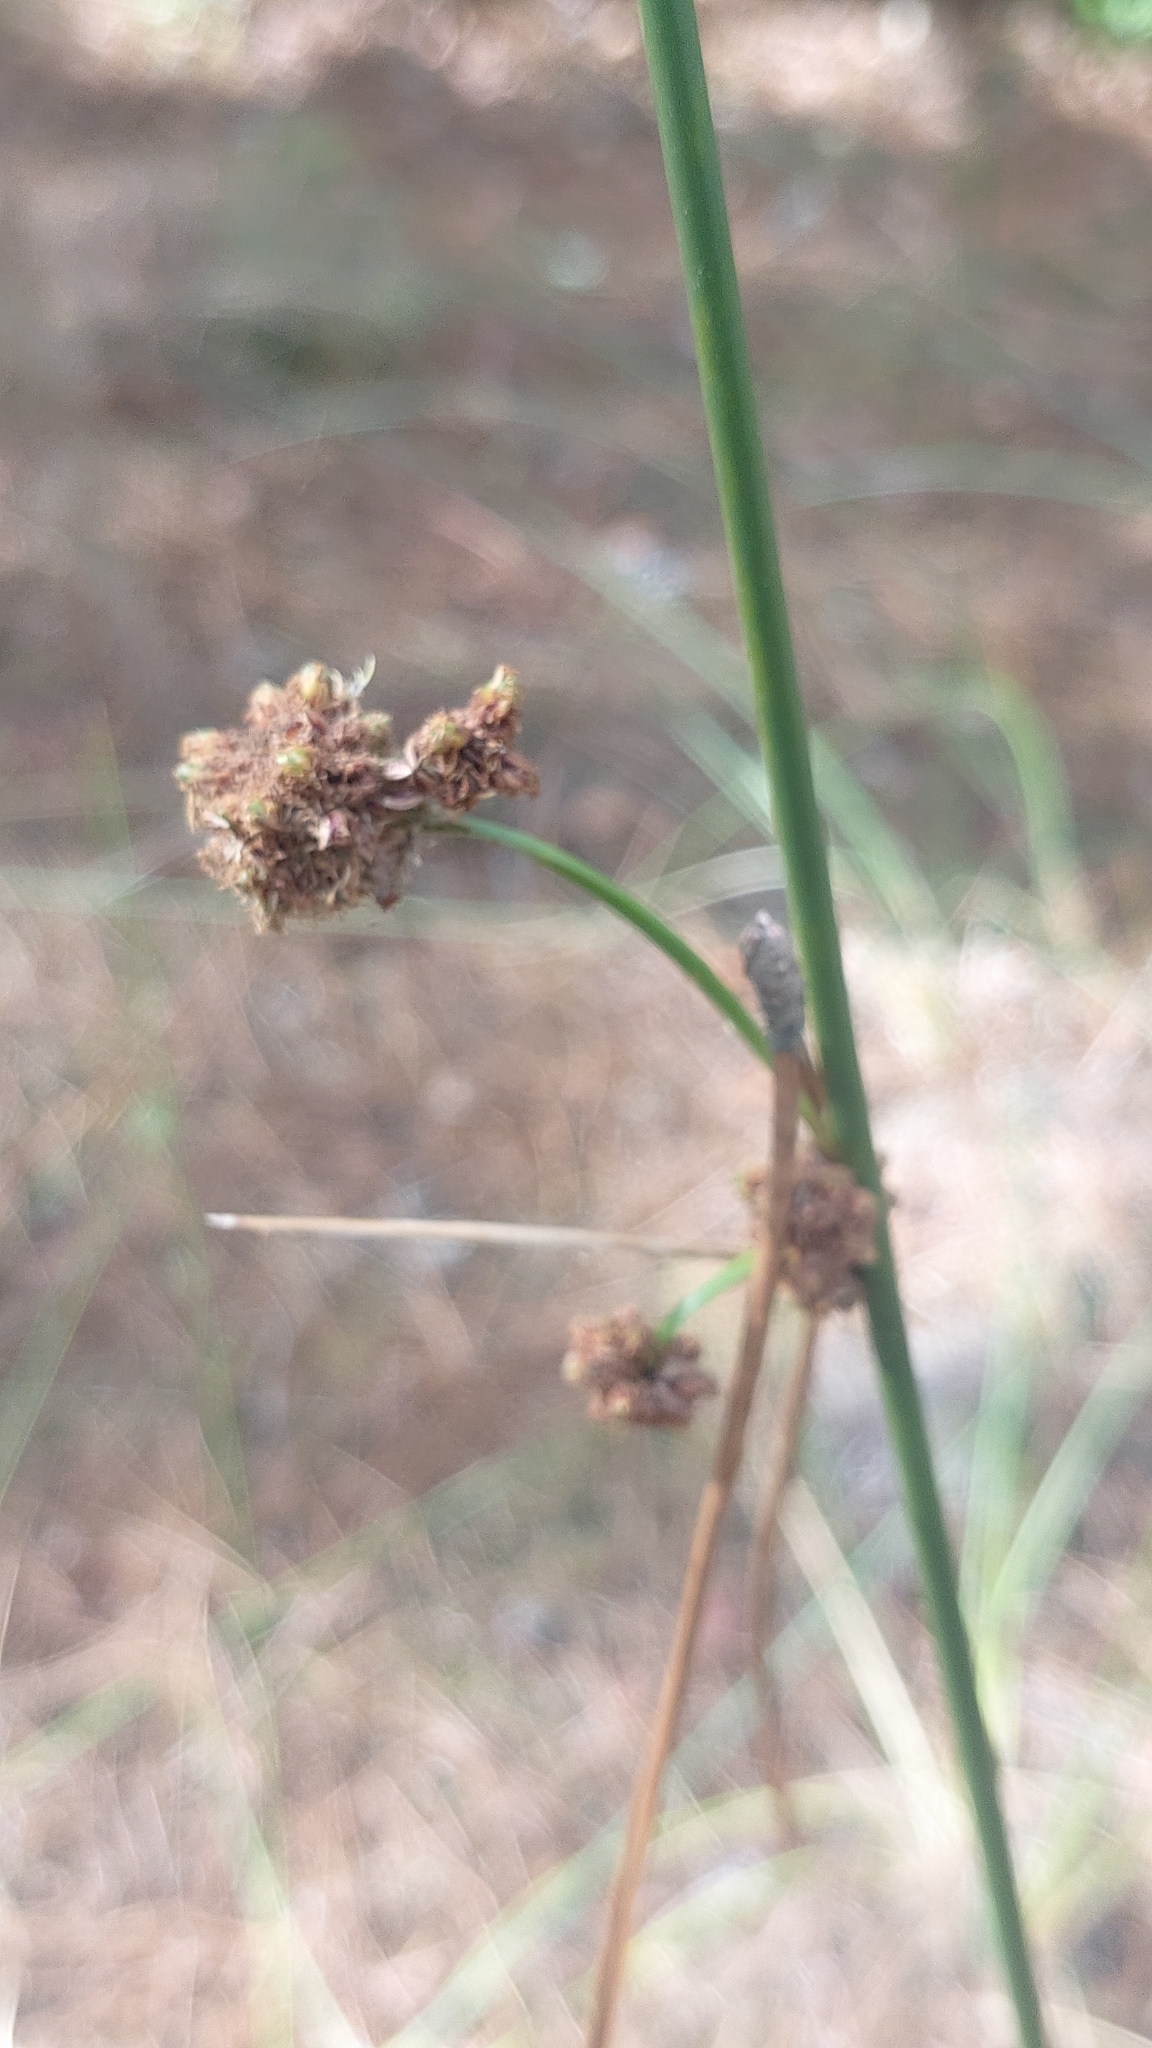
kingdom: Plantae
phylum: Tracheophyta
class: Liliopsida
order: Poales
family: Cyperaceae
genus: Scirpoides
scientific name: Scirpoides holoschoenus
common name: Round-headed club-rush
